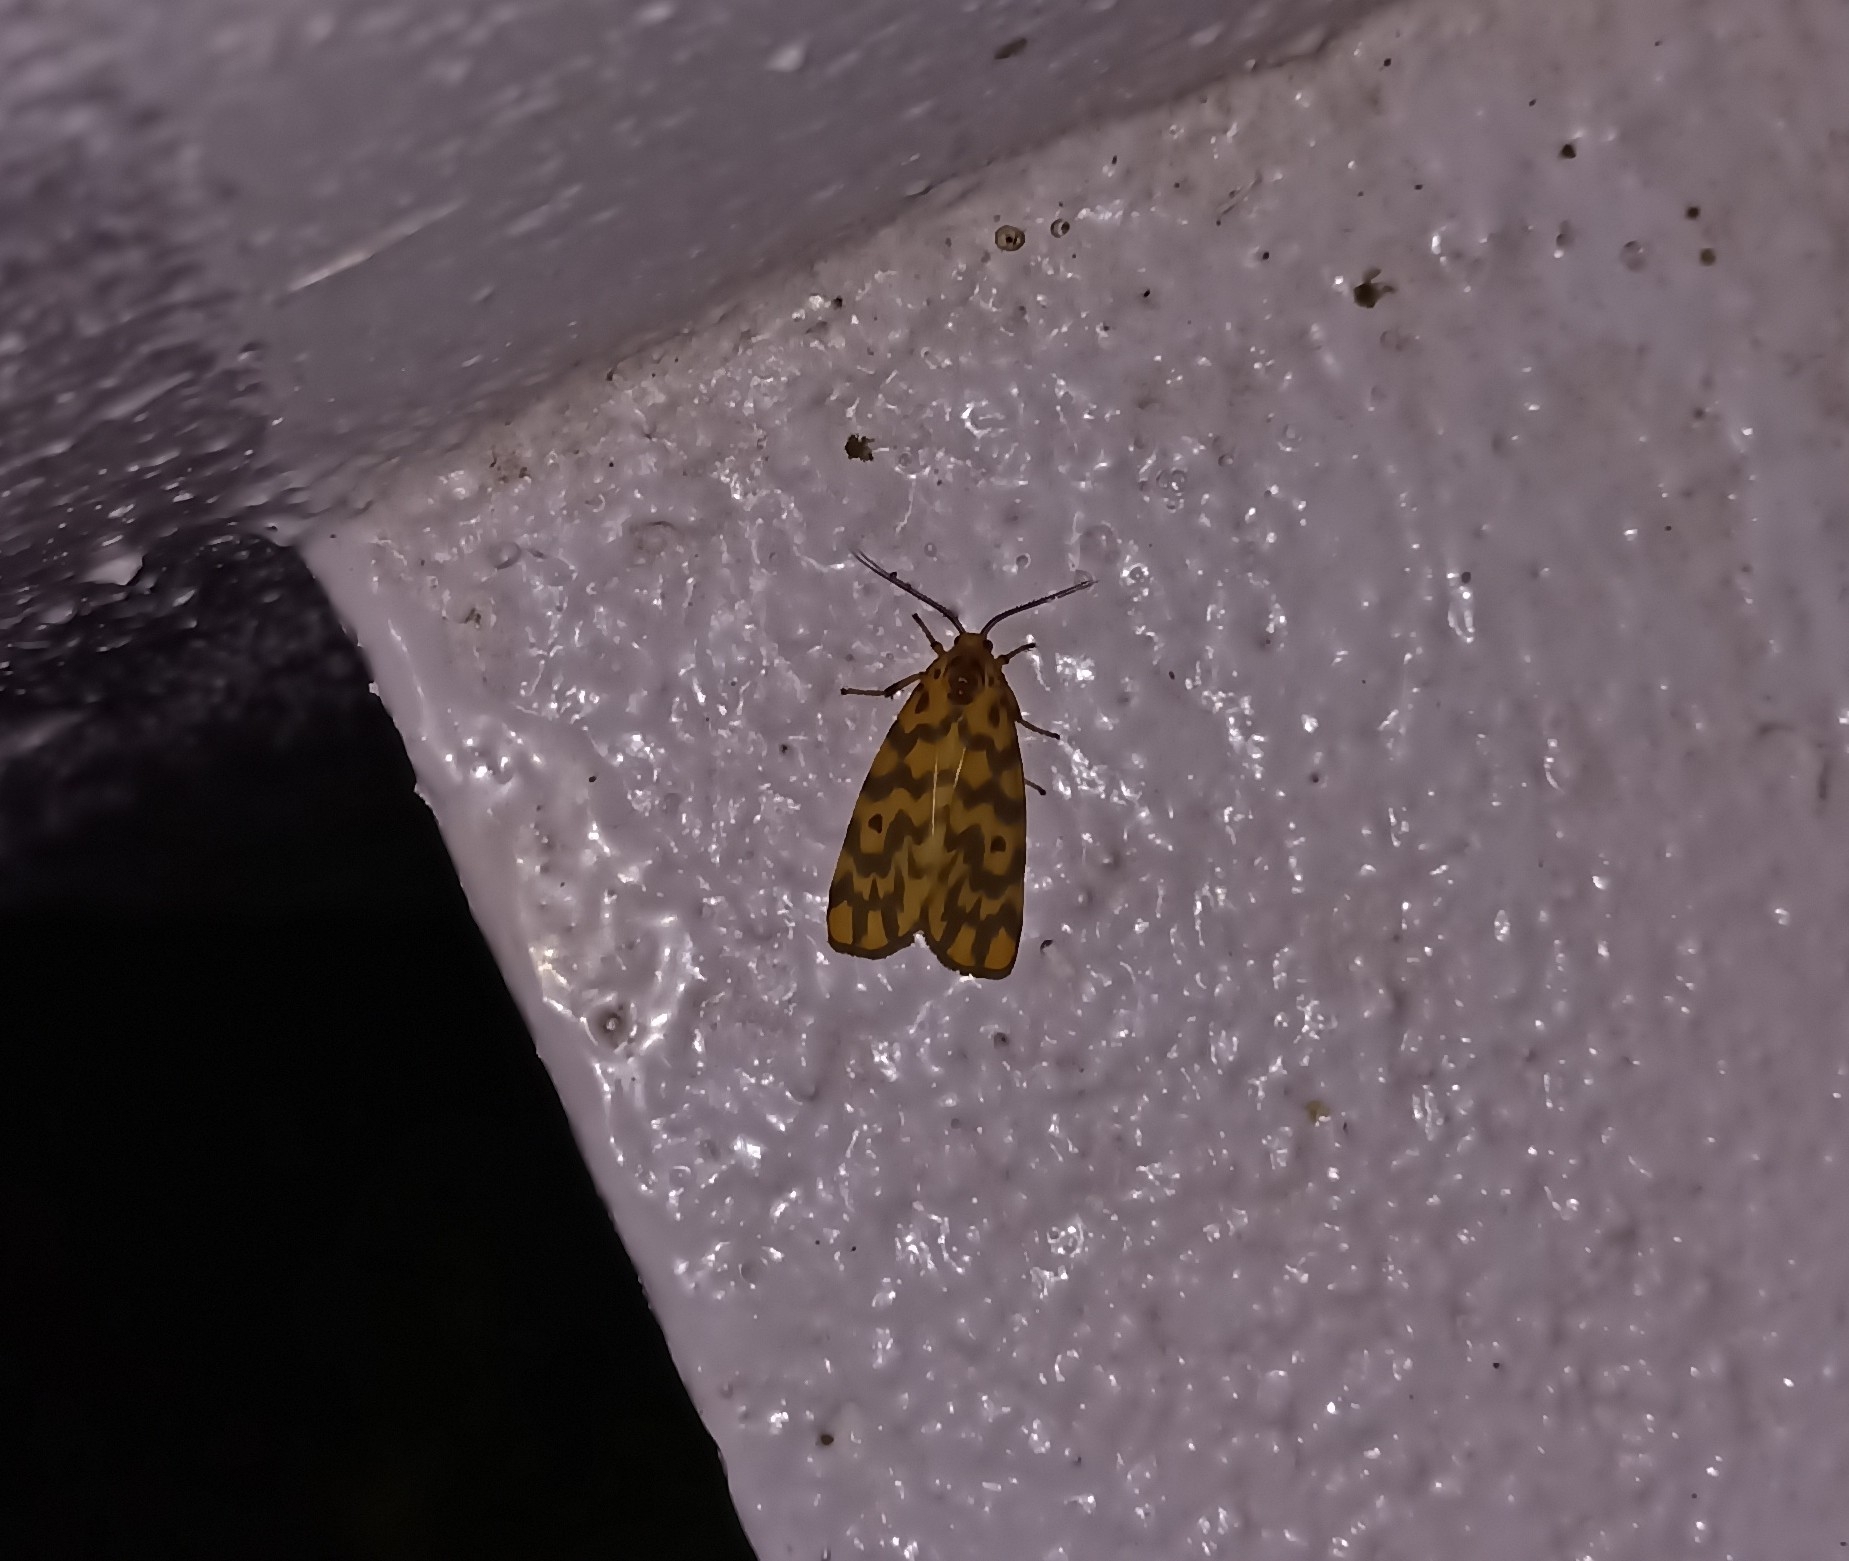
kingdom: Animalia
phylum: Arthropoda
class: Insecta
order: Lepidoptera
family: Erebidae
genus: Nepita
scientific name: Nepita conferta
